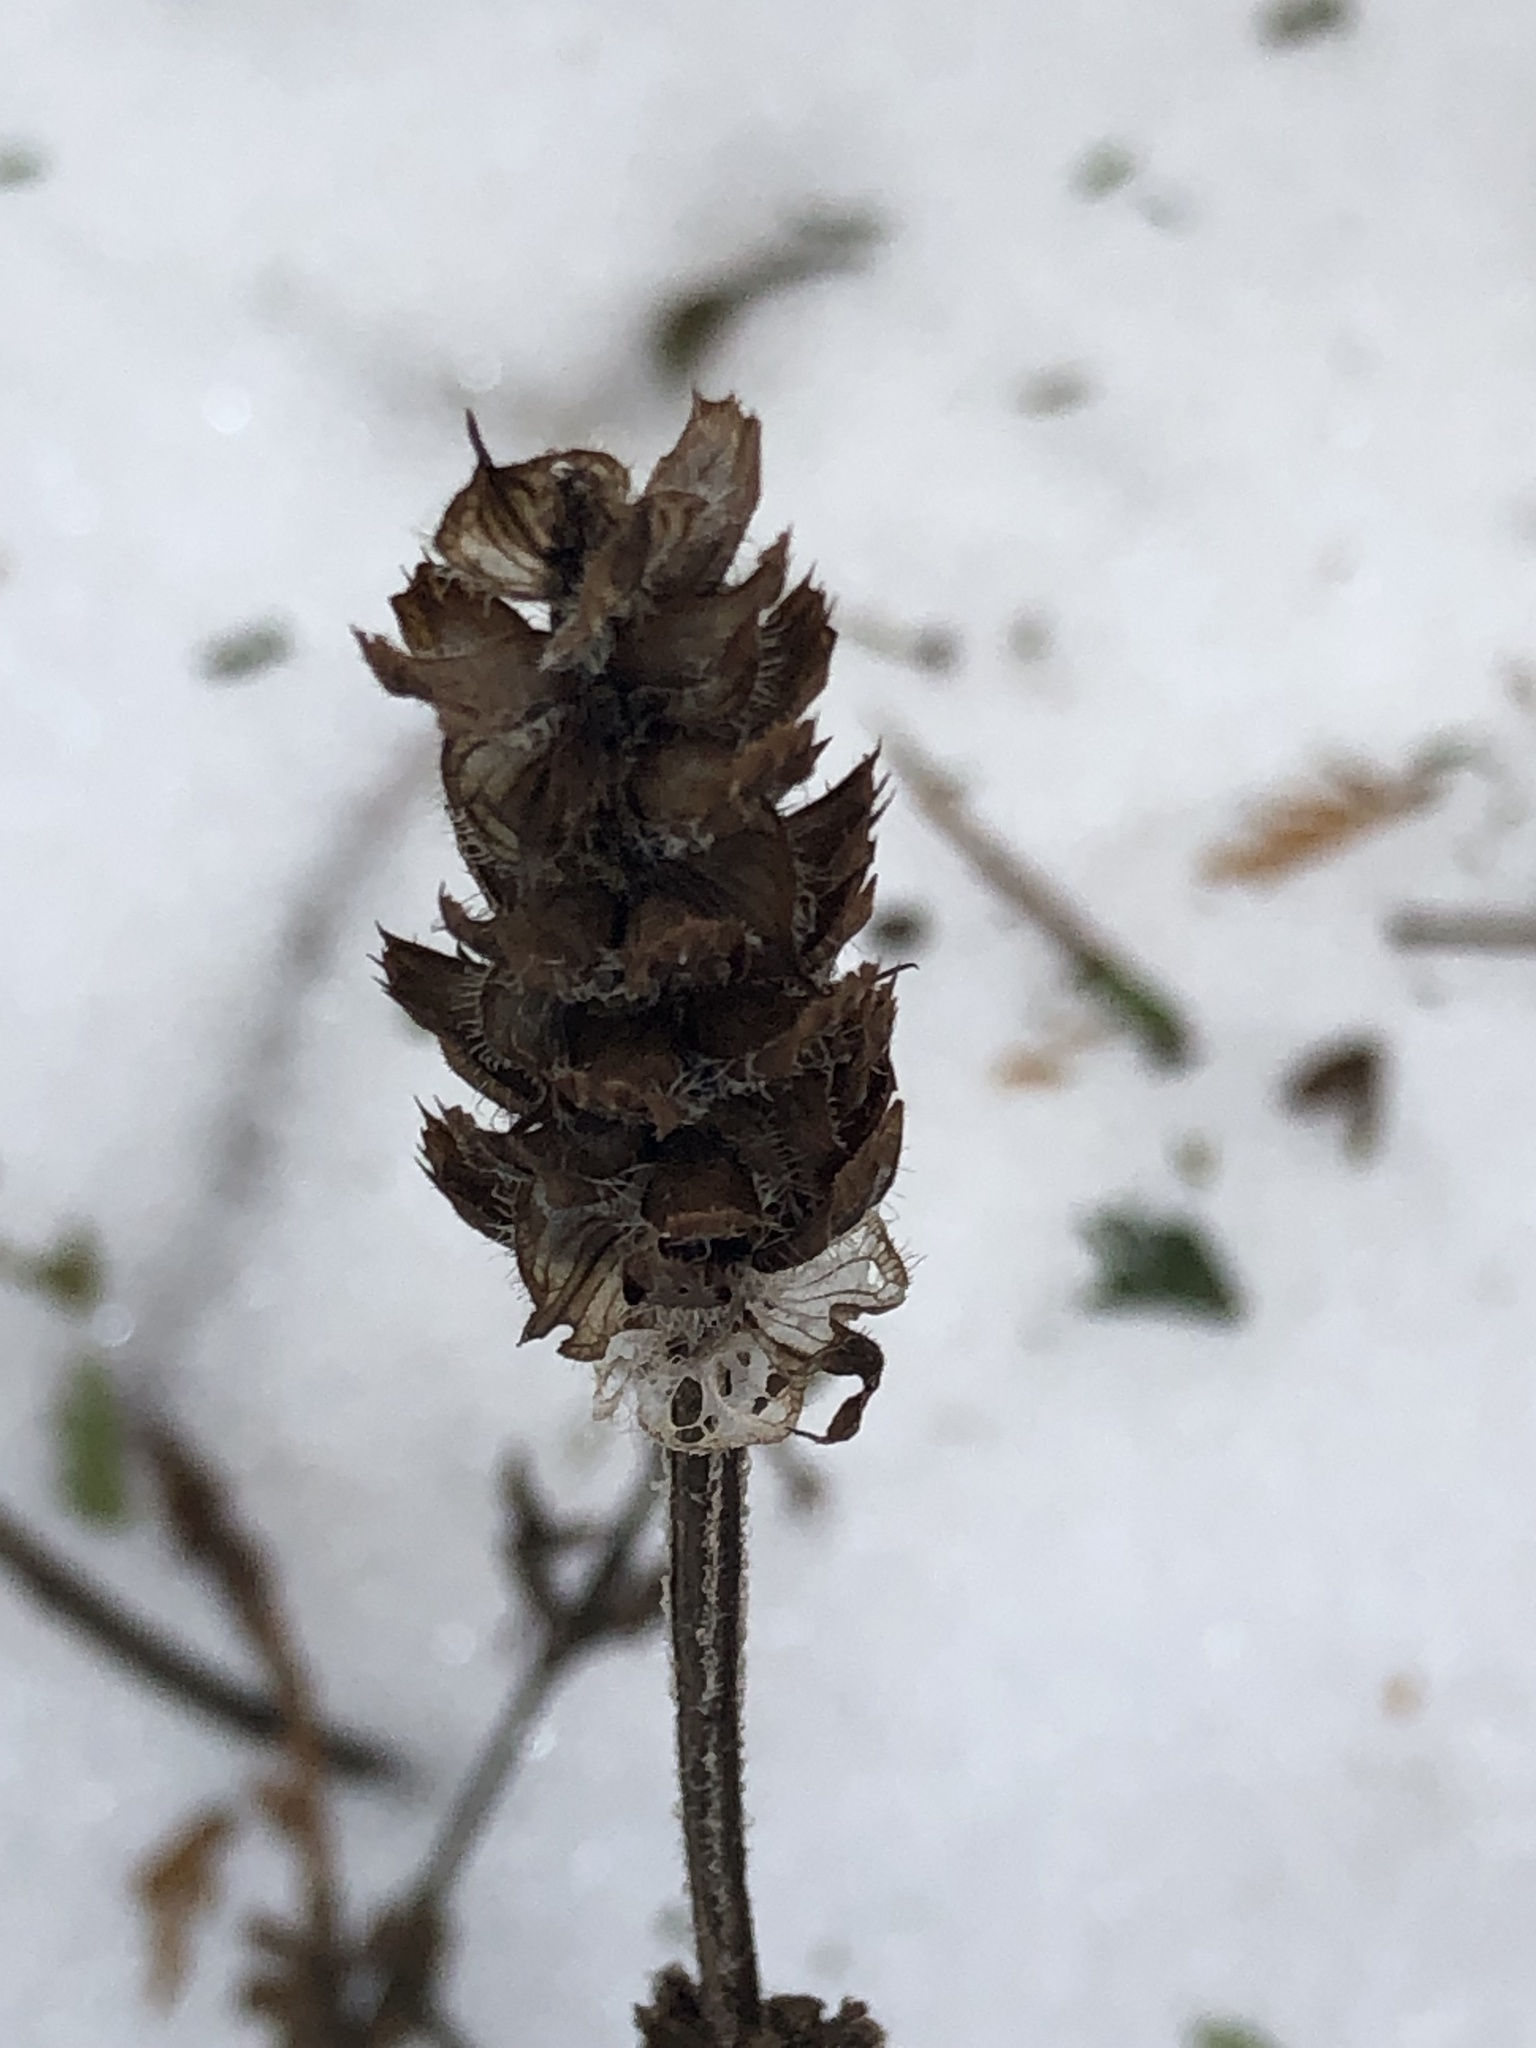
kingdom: Plantae
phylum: Tracheophyta
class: Magnoliopsida
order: Lamiales
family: Lamiaceae
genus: Prunella
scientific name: Prunella vulgaris
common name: Heal-all
